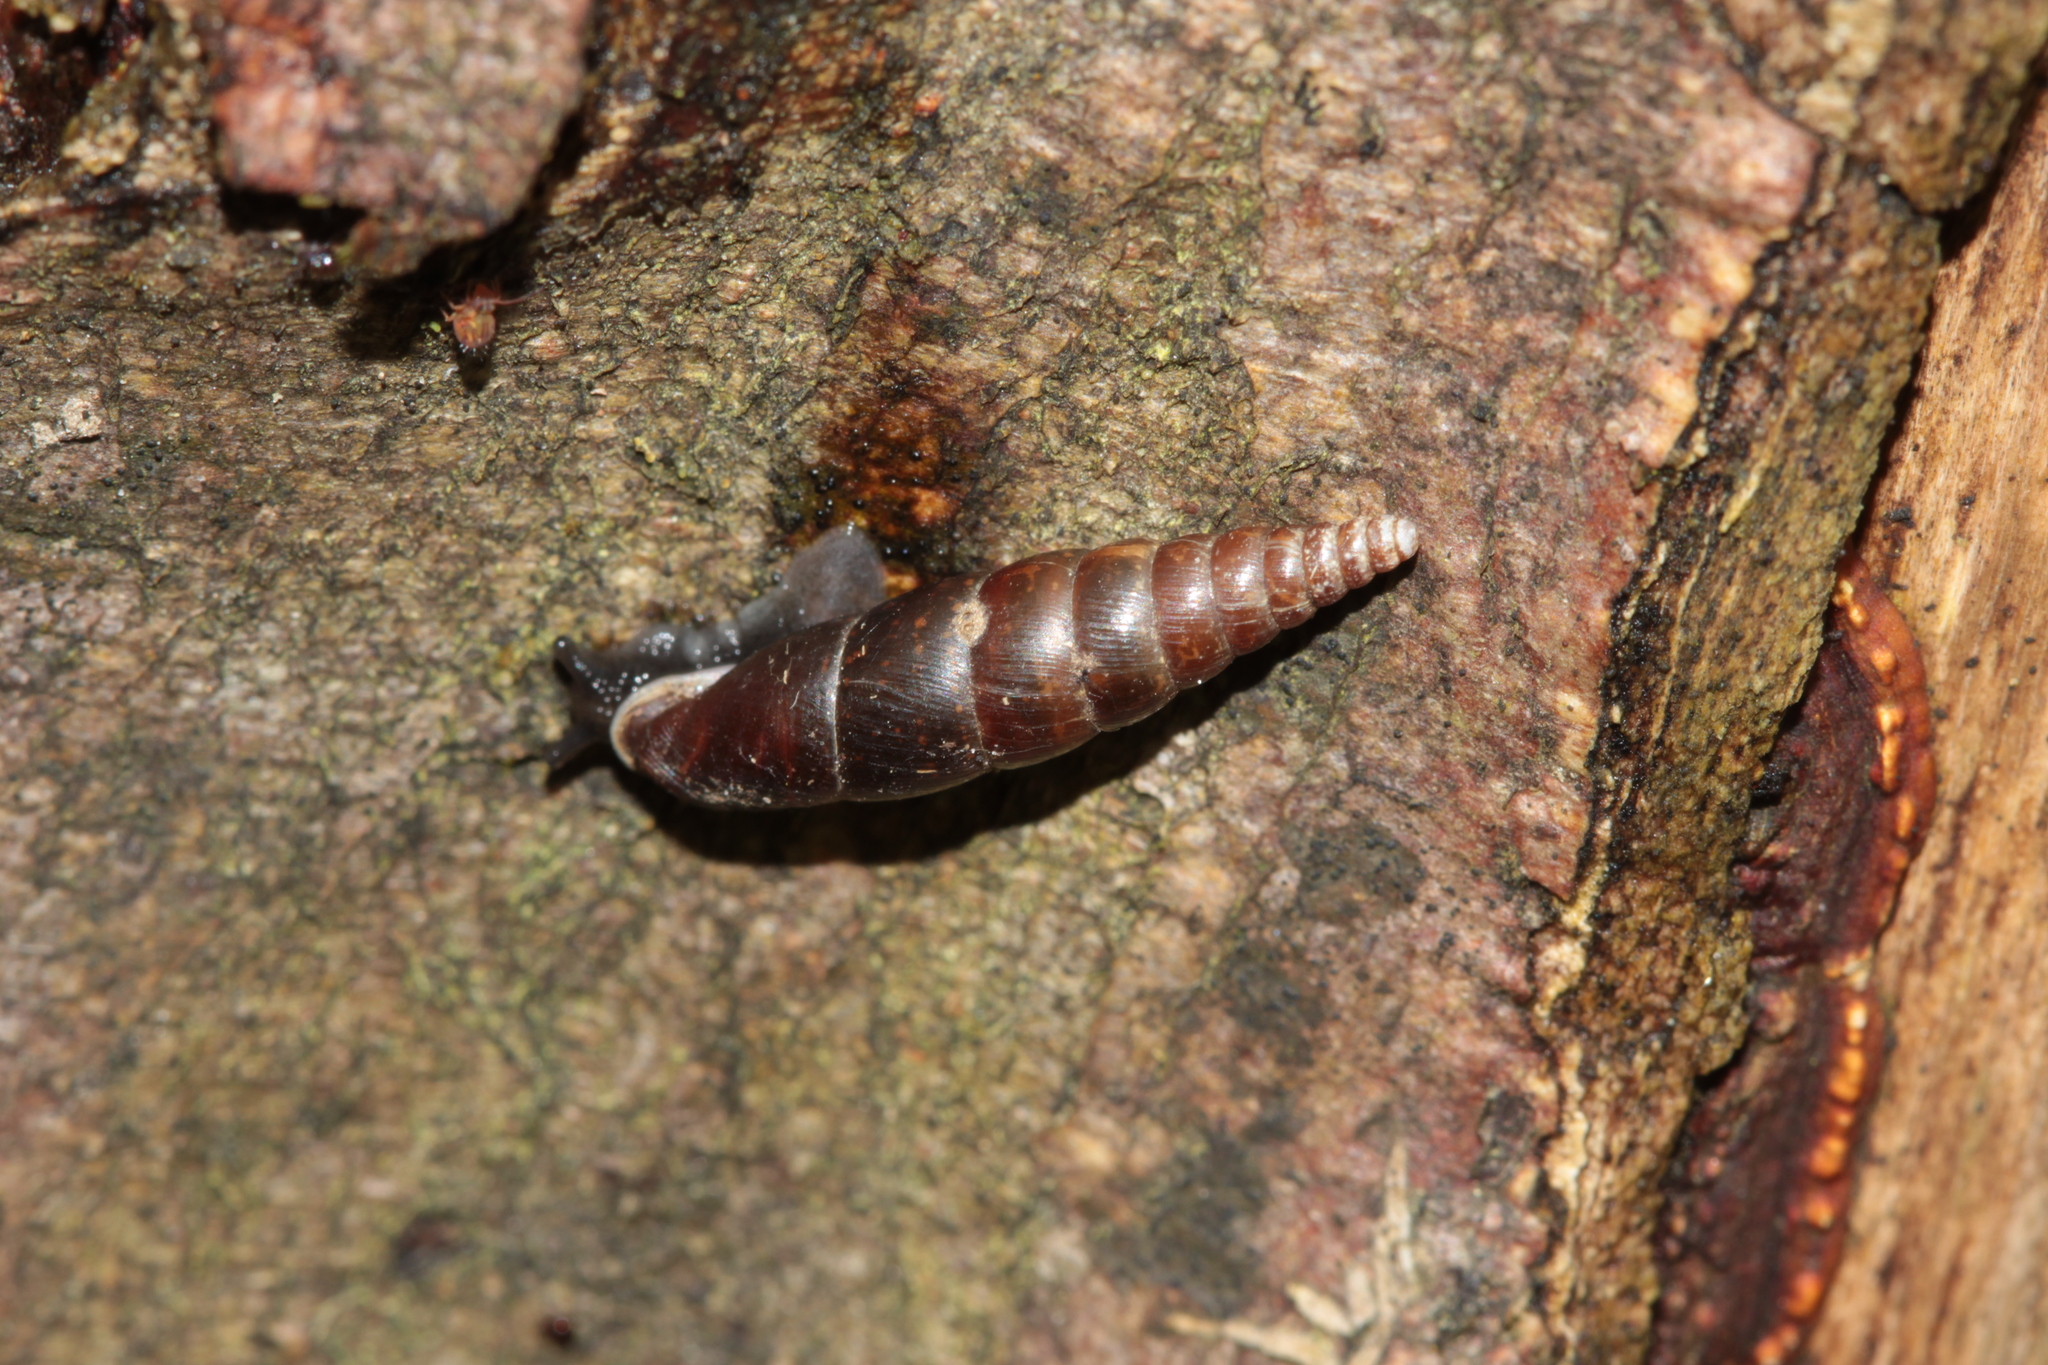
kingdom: Animalia
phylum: Mollusca
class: Gastropoda
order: Stylommatophora
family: Clausiliidae
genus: Cochlodina
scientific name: Cochlodina laminata
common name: Plaited door snail
